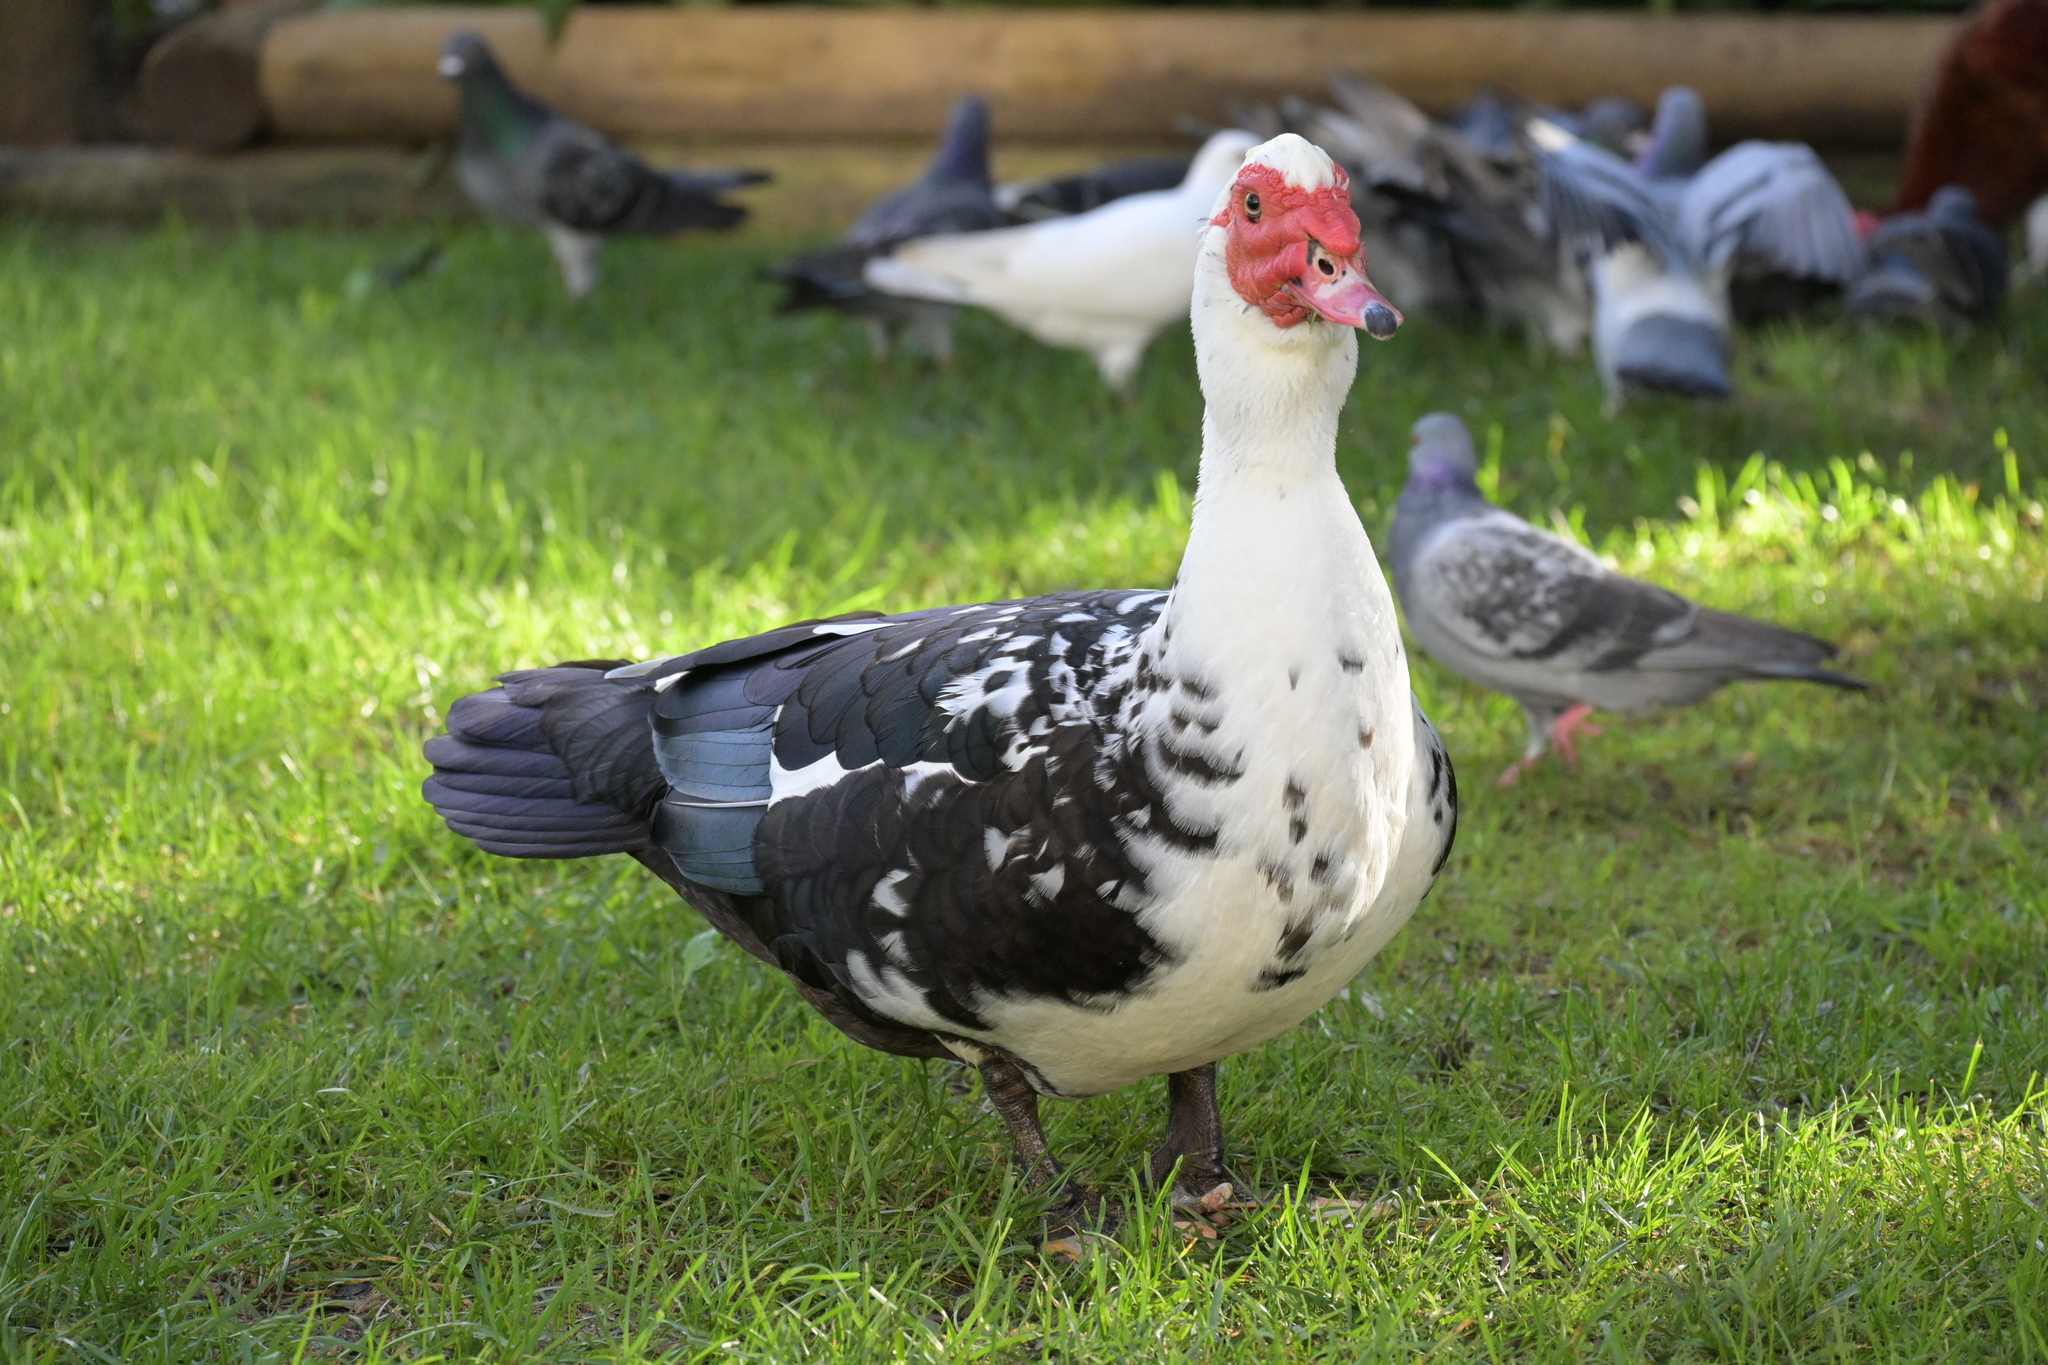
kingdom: Animalia
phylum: Chordata
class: Aves
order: Anseriformes
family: Anatidae
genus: Cairina
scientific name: Cairina moschata
